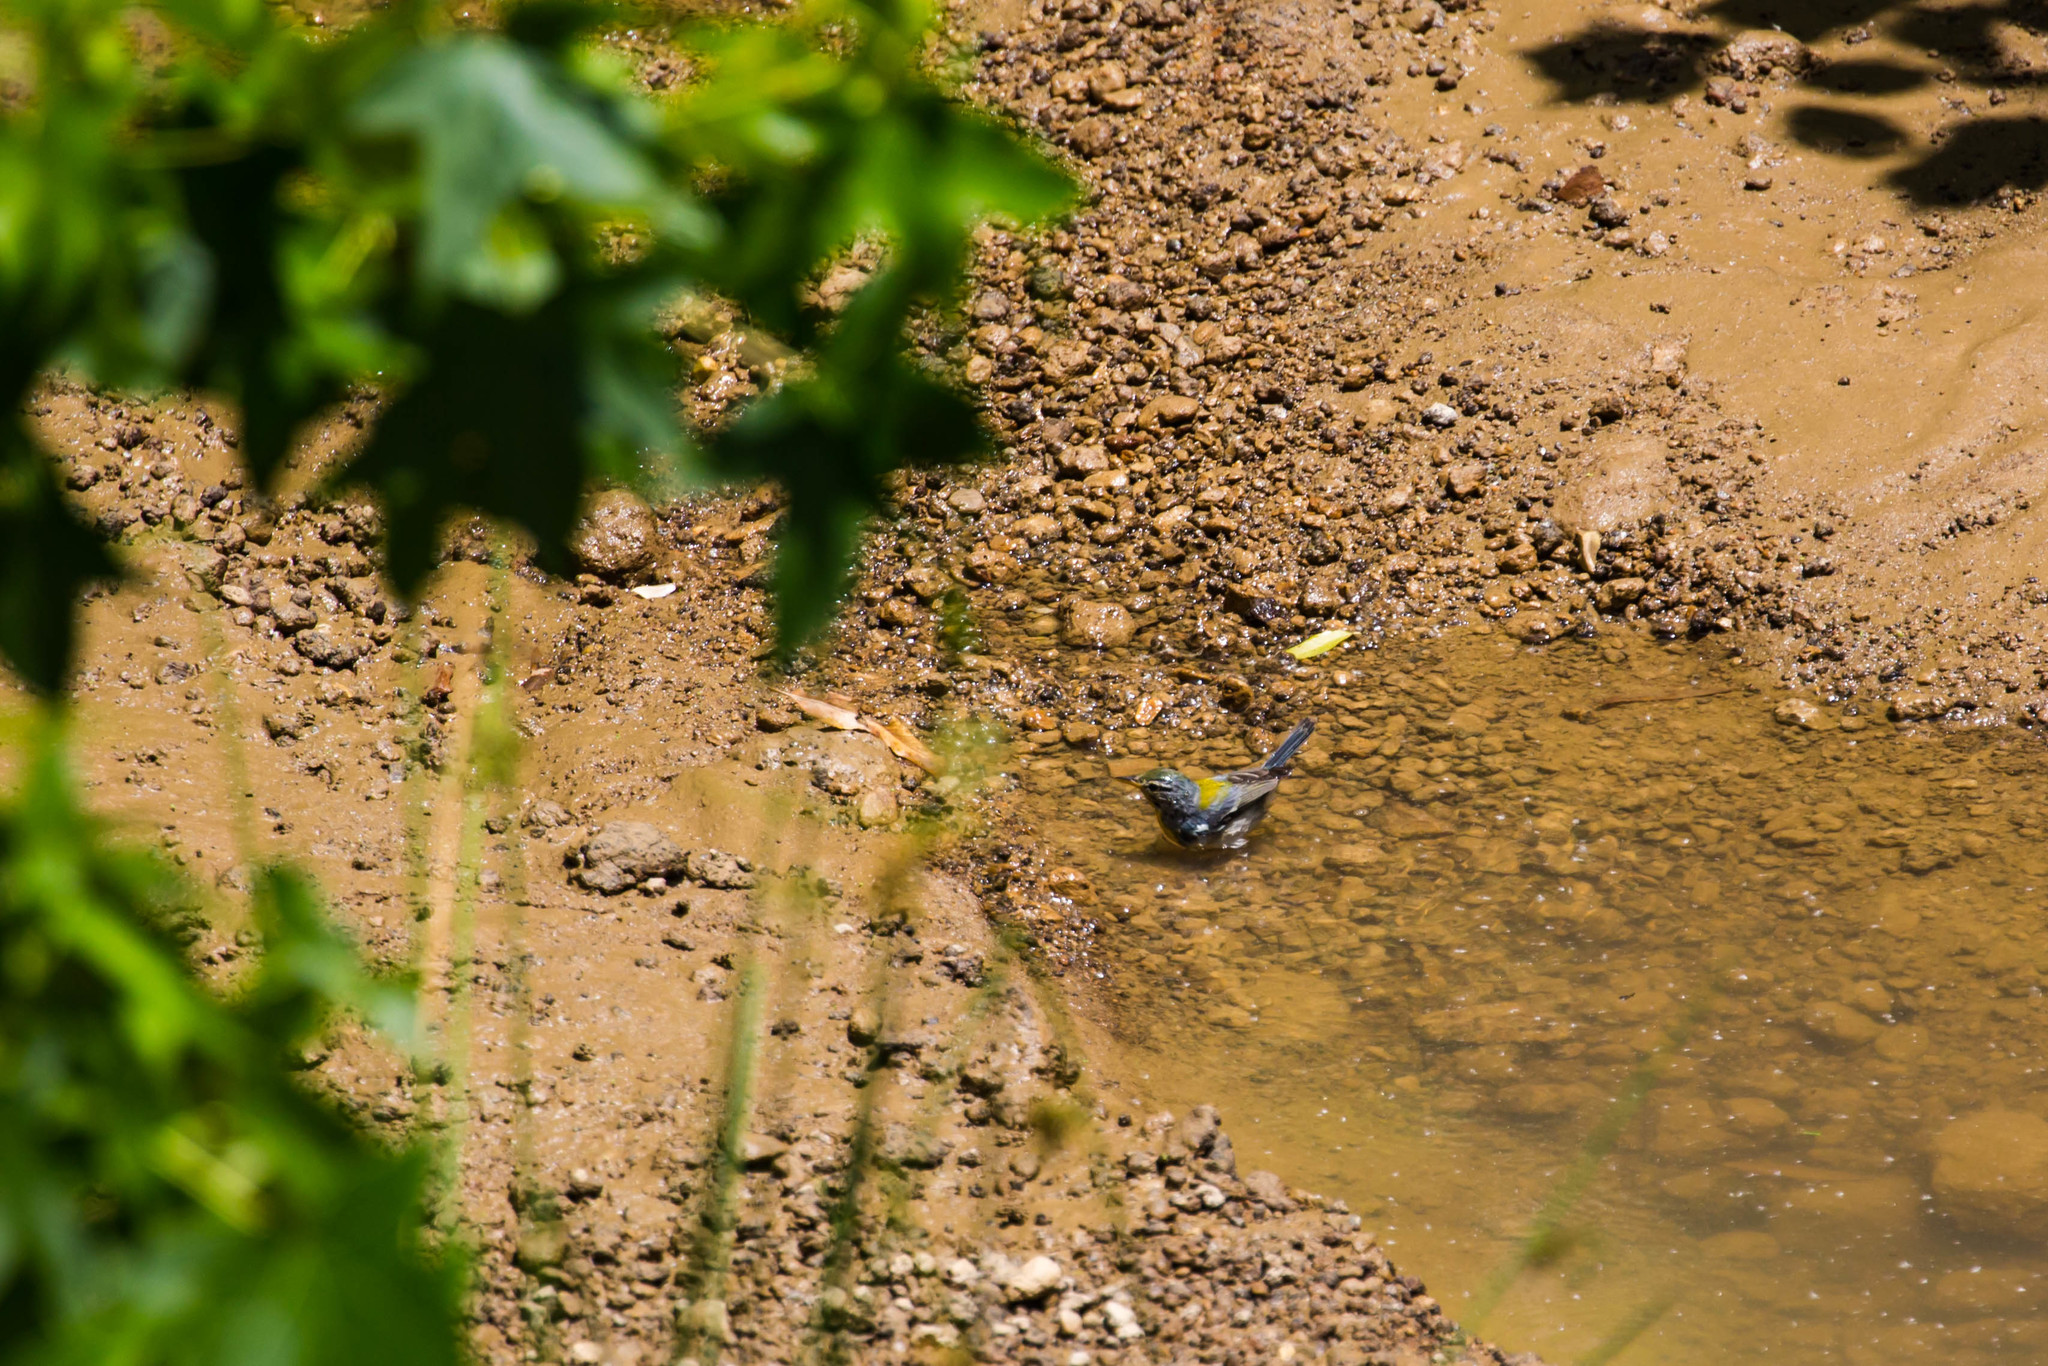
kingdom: Animalia
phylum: Chordata
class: Aves
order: Passeriformes
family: Parulidae
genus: Setophaga
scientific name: Setophaga americana
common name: Northern parula
